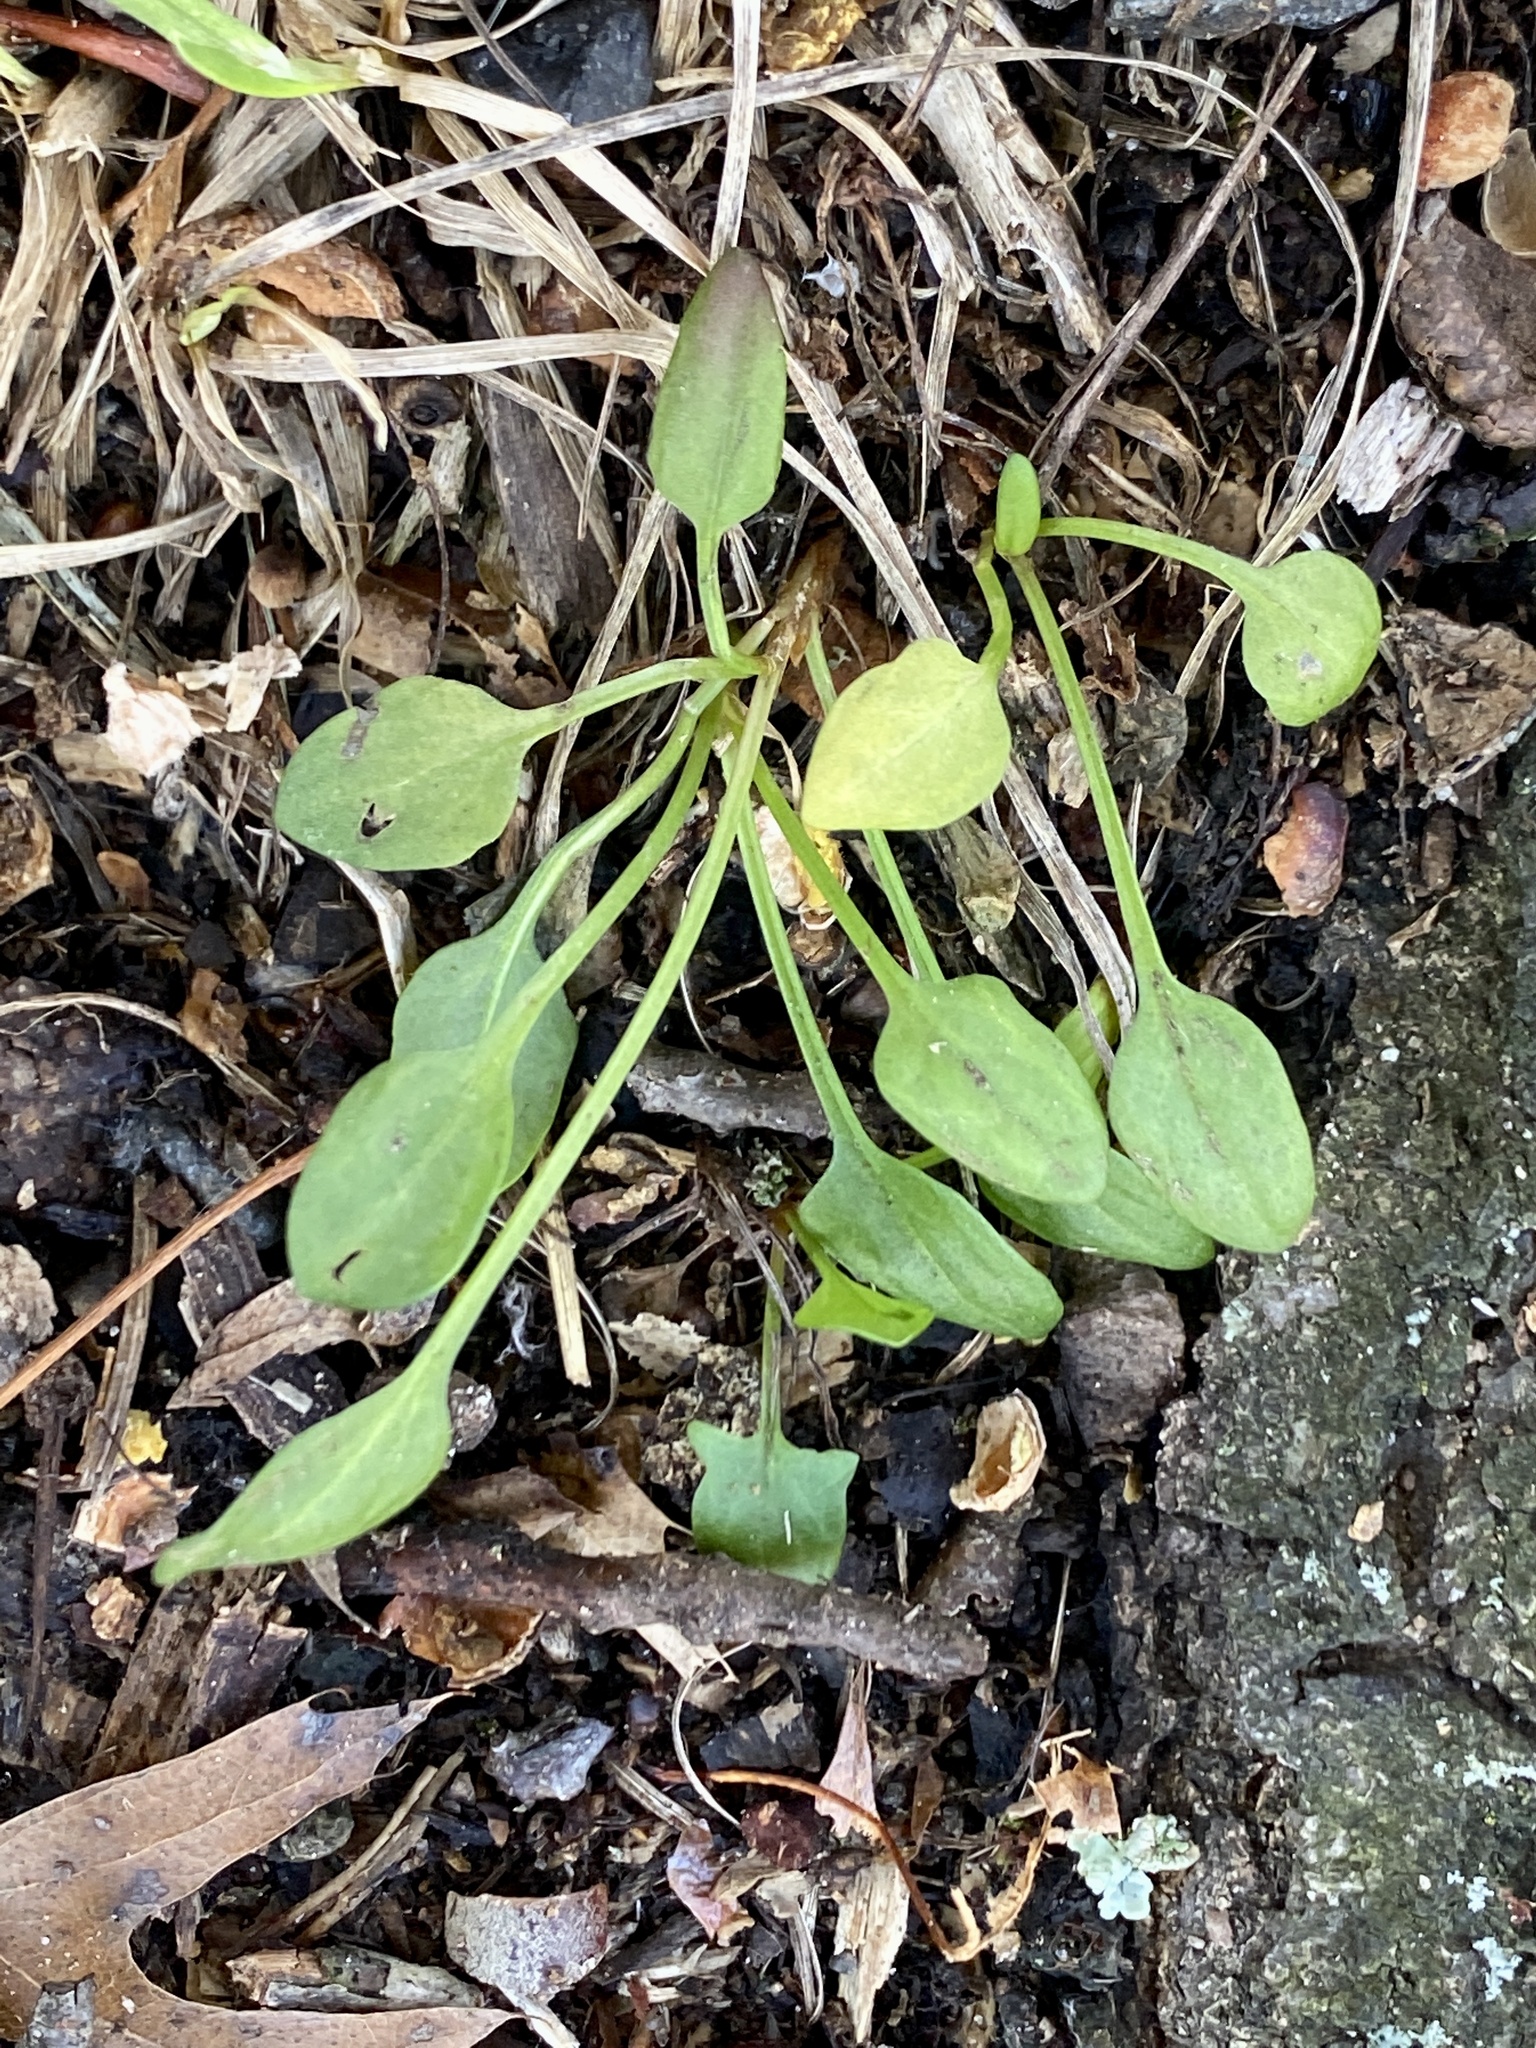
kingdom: Plantae
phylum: Tracheophyta
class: Magnoliopsida
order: Caryophyllales
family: Polygonaceae
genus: Rumex
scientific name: Rumex acetosella
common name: Common sheep sorrel
